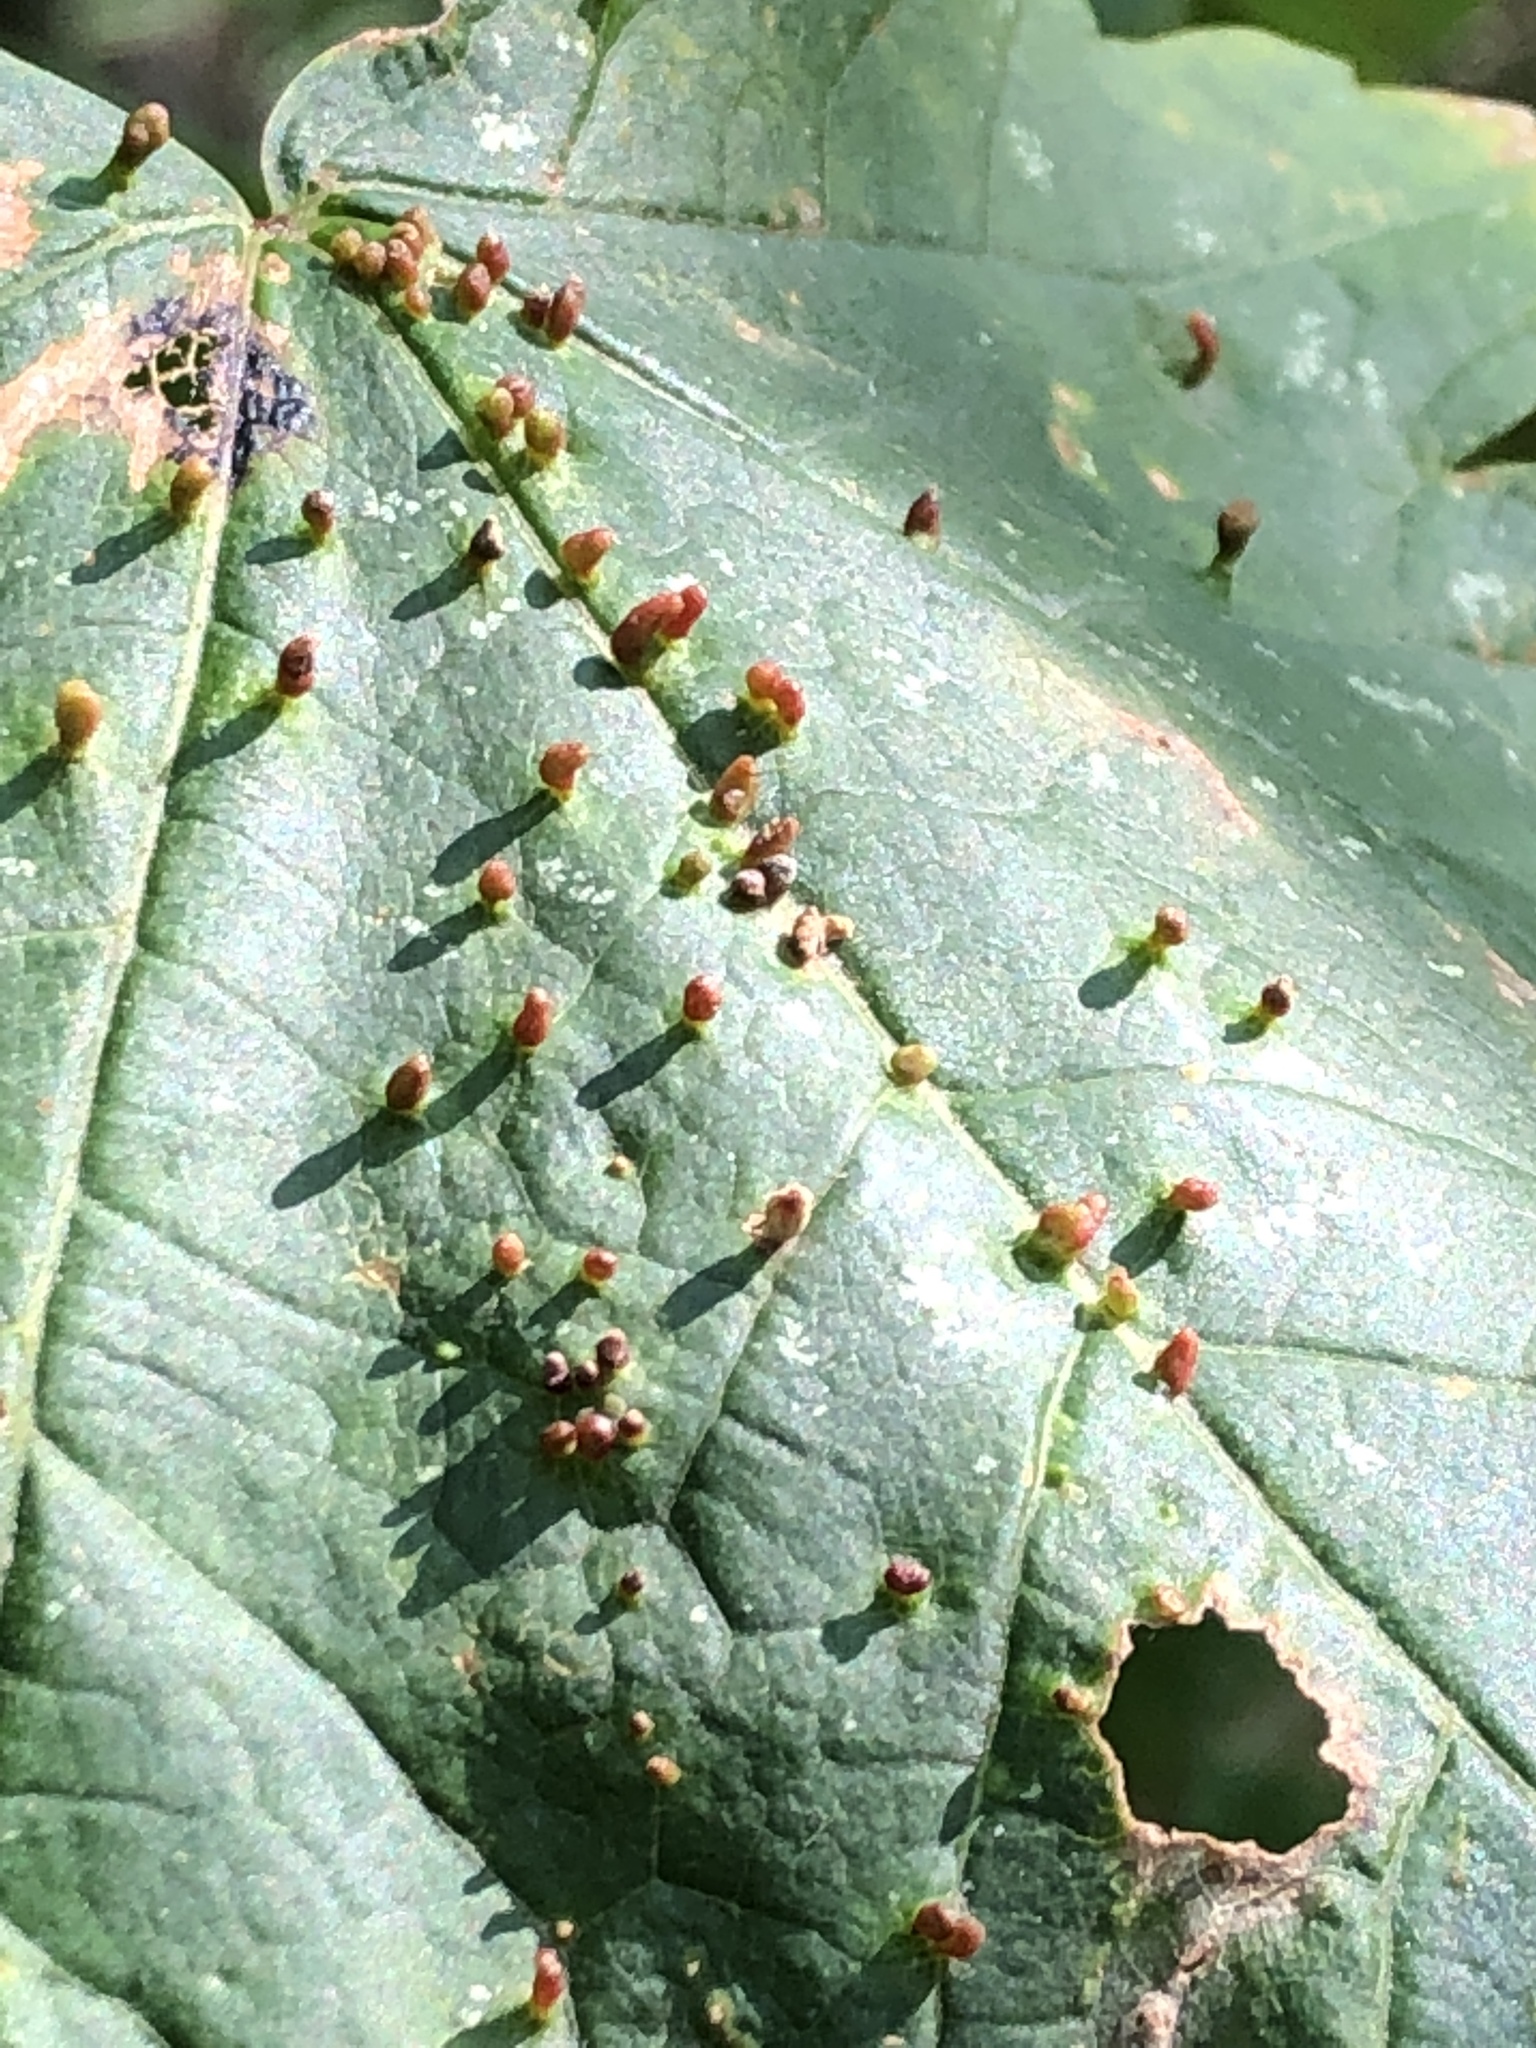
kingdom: Animalia
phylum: Arthropoda
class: Arachnida
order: Trombidiformes
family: Eriophyidae
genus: Aceria
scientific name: Aceria cephaloneus
